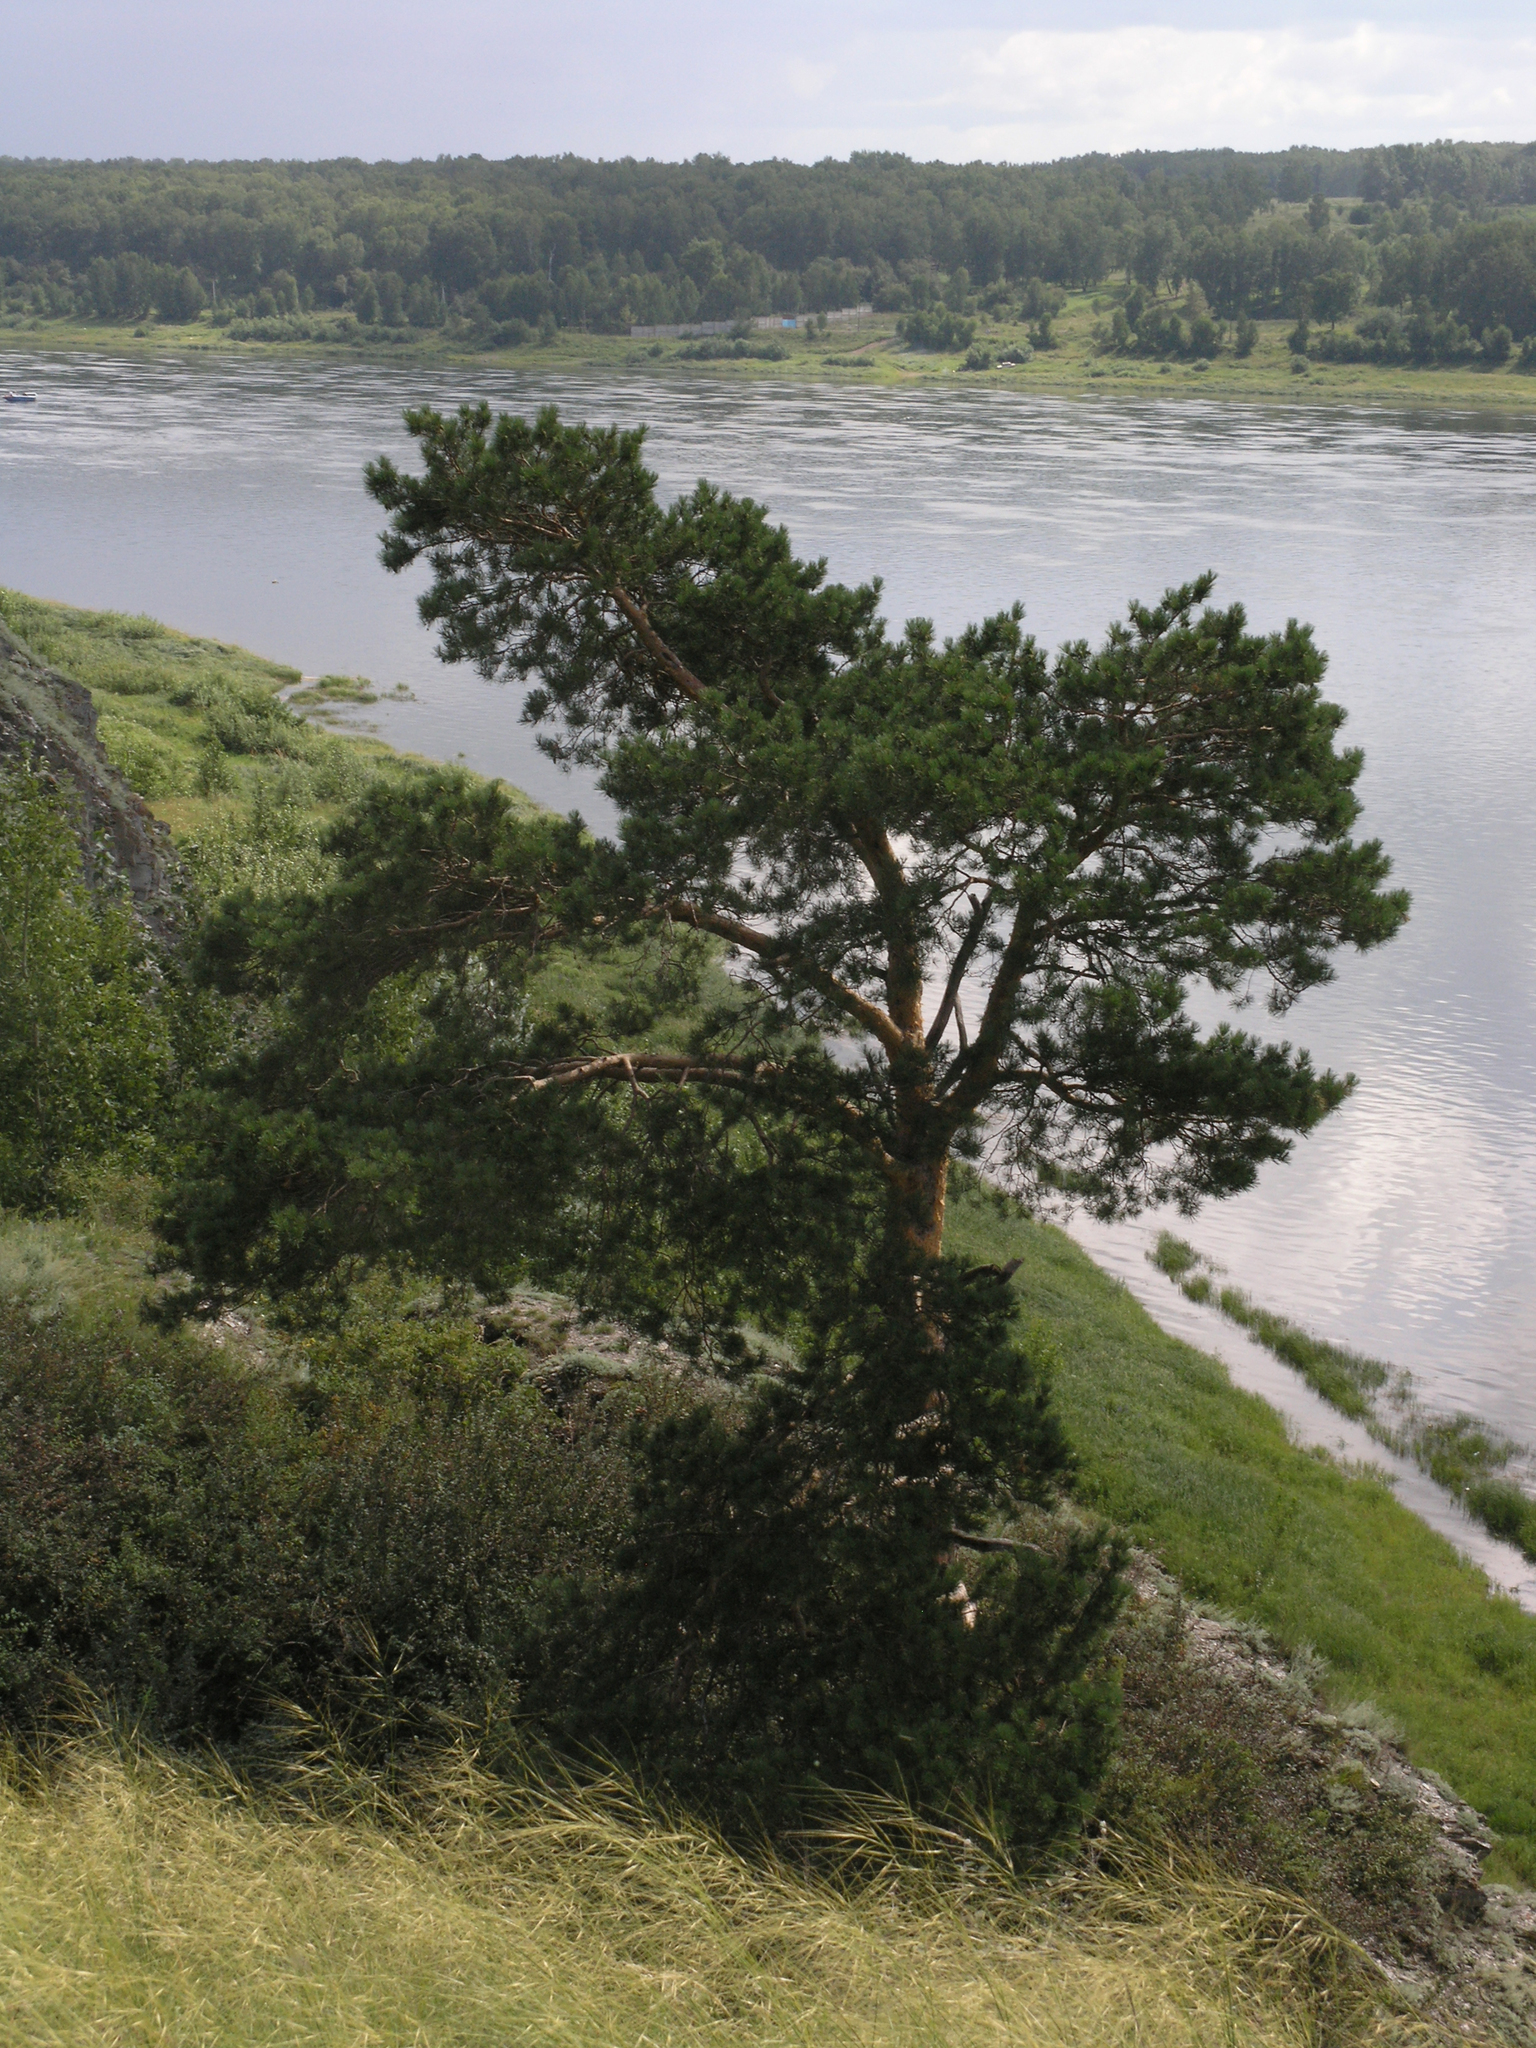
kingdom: Plantae
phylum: Tracheophyta
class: Pinopsida
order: Pinales
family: Pinaceae
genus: Pinus
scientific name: Pinus sylvestris
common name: Scots pine
